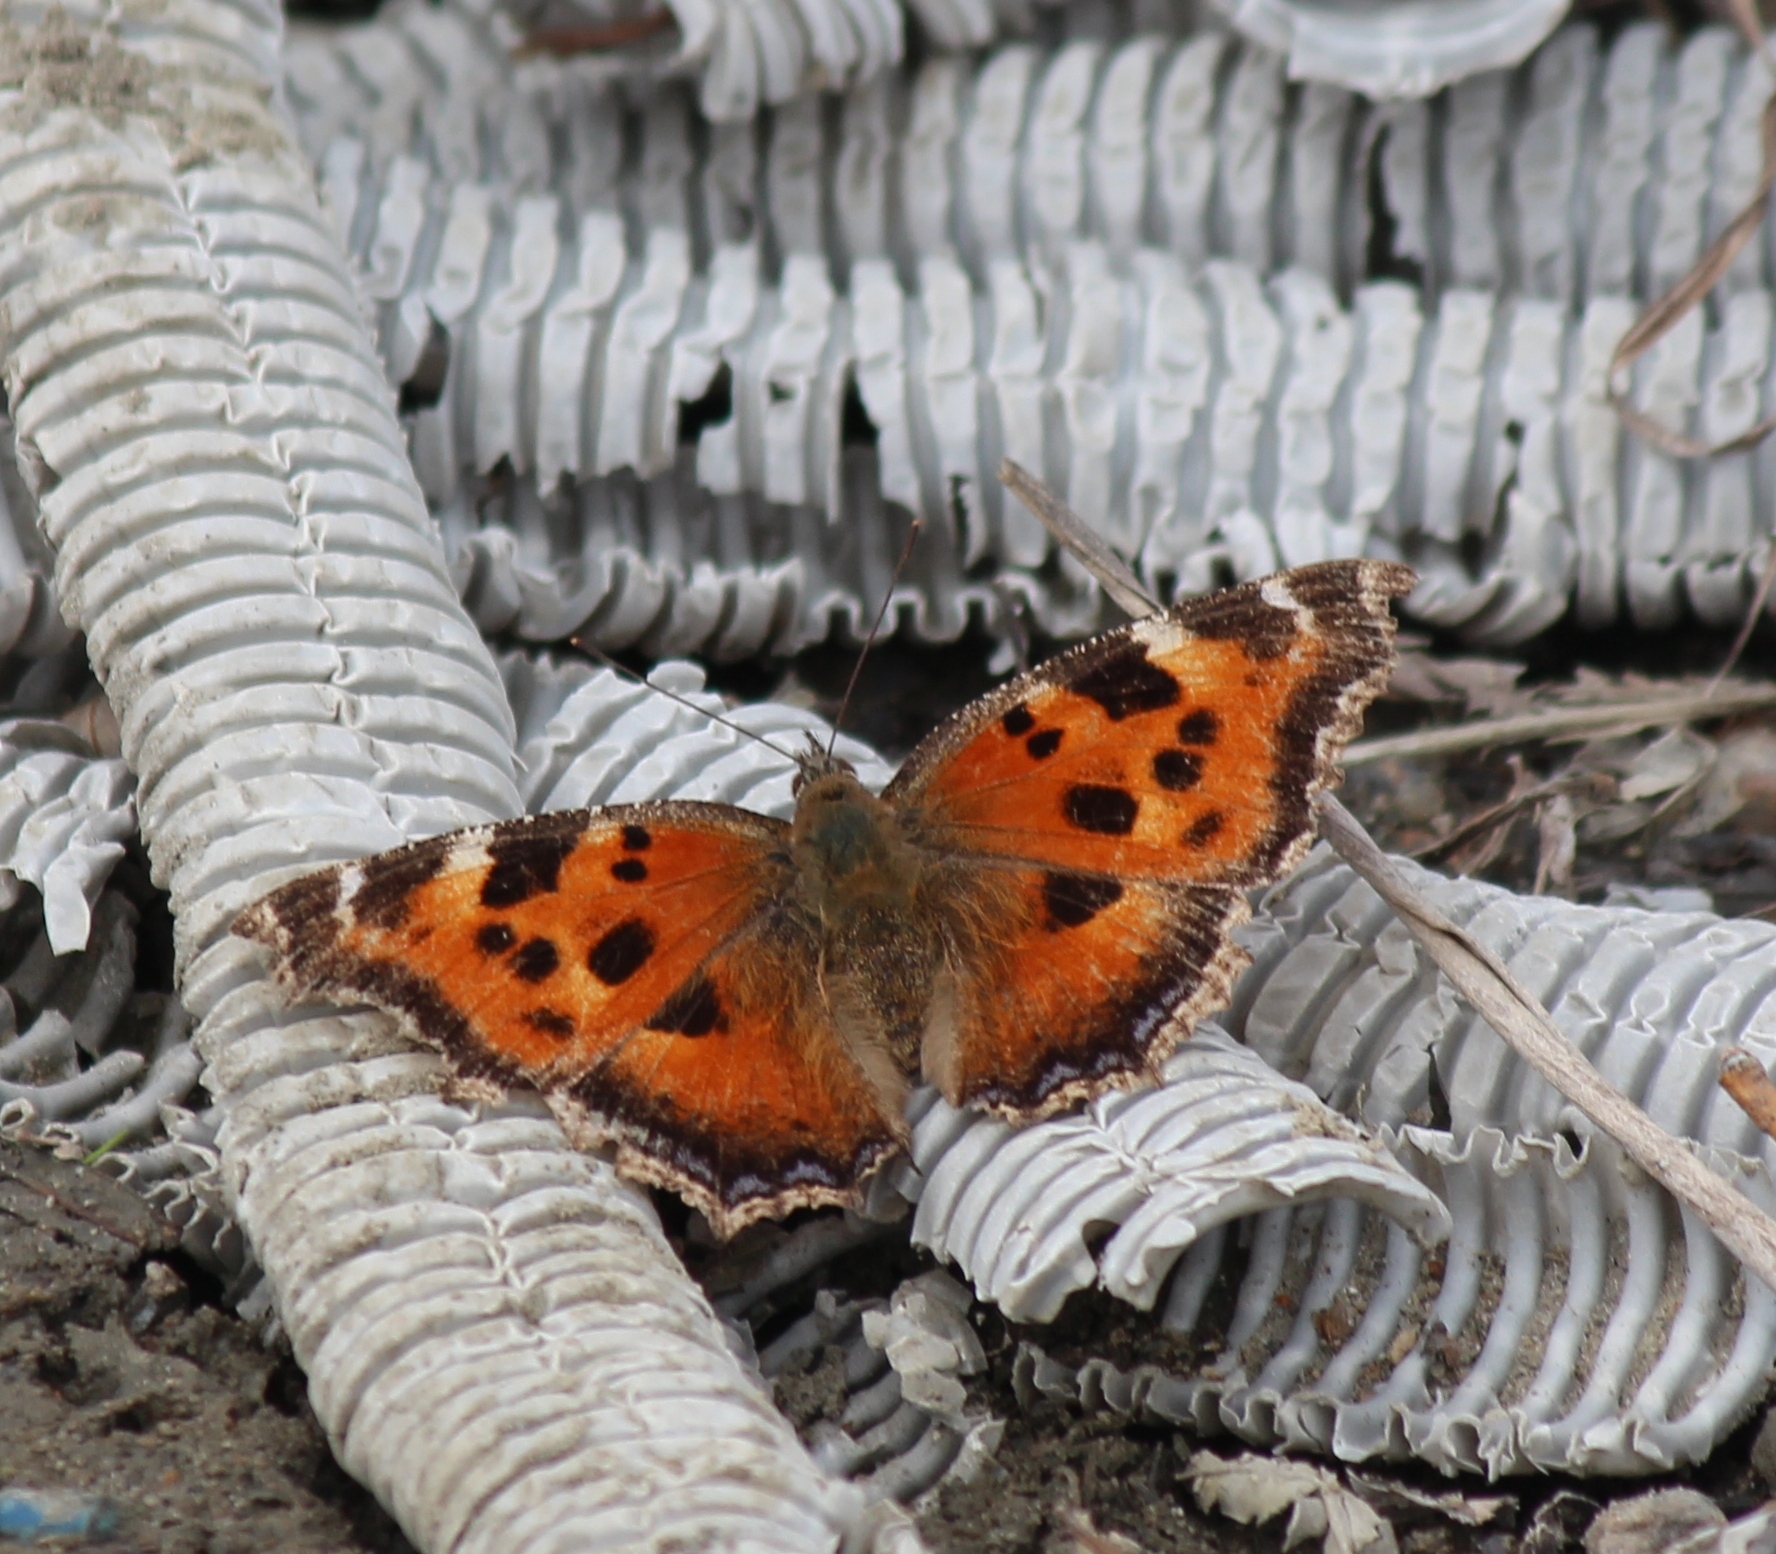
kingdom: Animalia
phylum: Arthropoda
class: Insecta
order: Lepidoptera
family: Nymphalidae
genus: Nymphalis
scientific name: Nymphalis xanthomelas
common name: Scarce tortoiseshell
